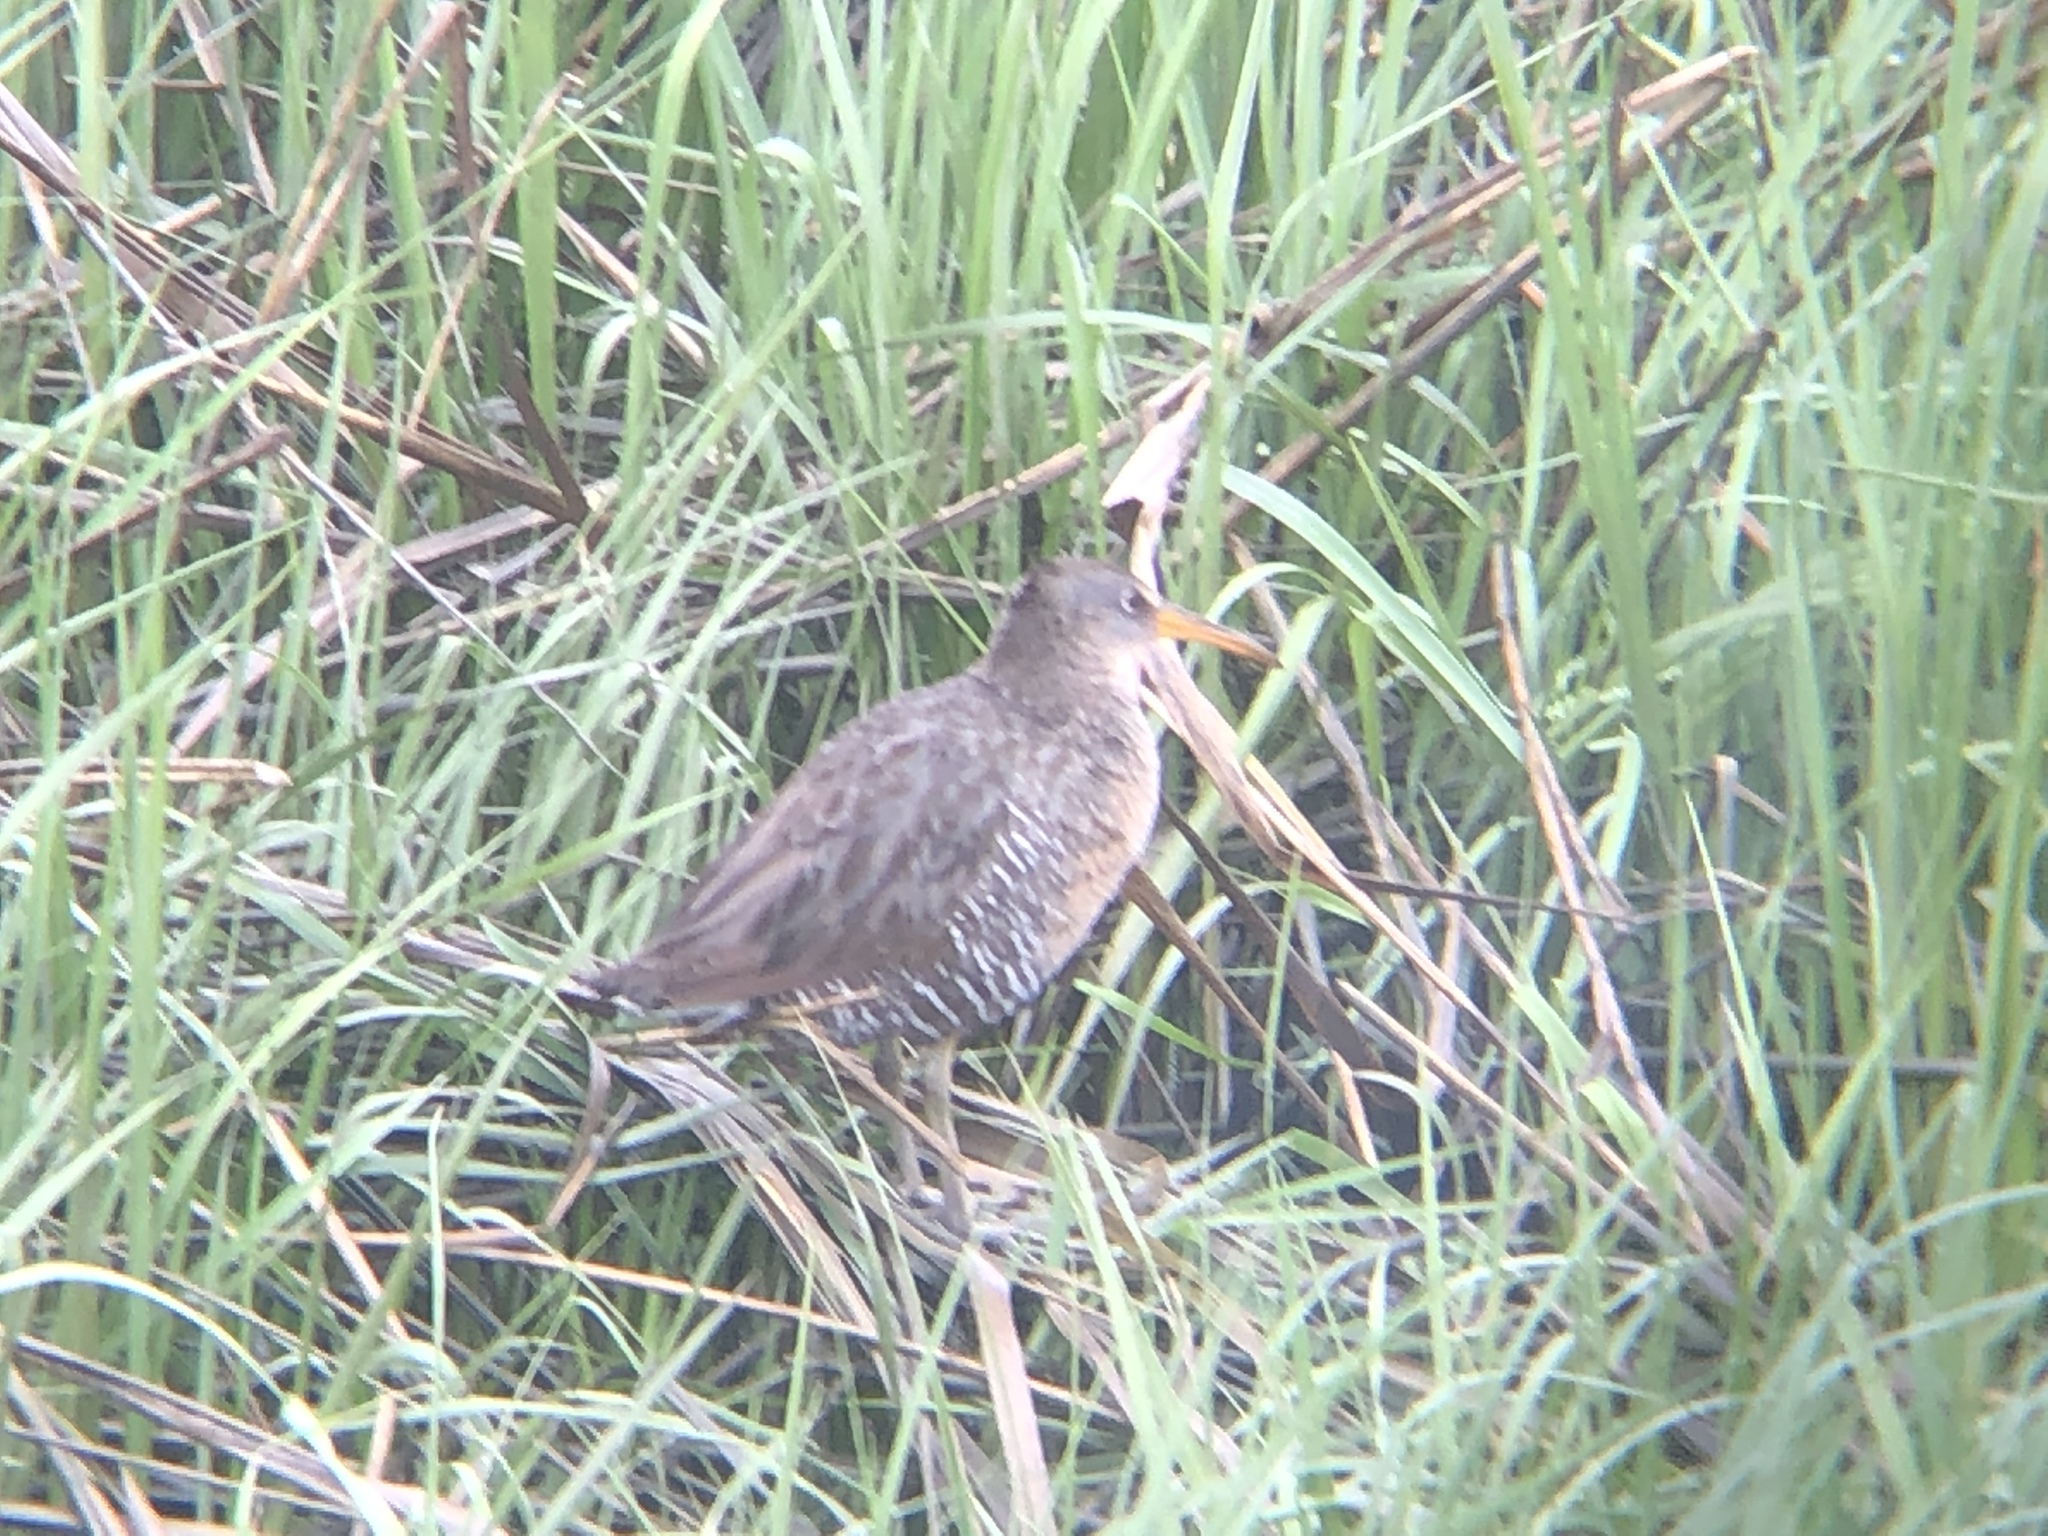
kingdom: Animalia
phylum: Chordata
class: Aves
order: Gruiformes
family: Rallidae
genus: Rallus
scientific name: Rallus crepitans
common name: Clapper rail
